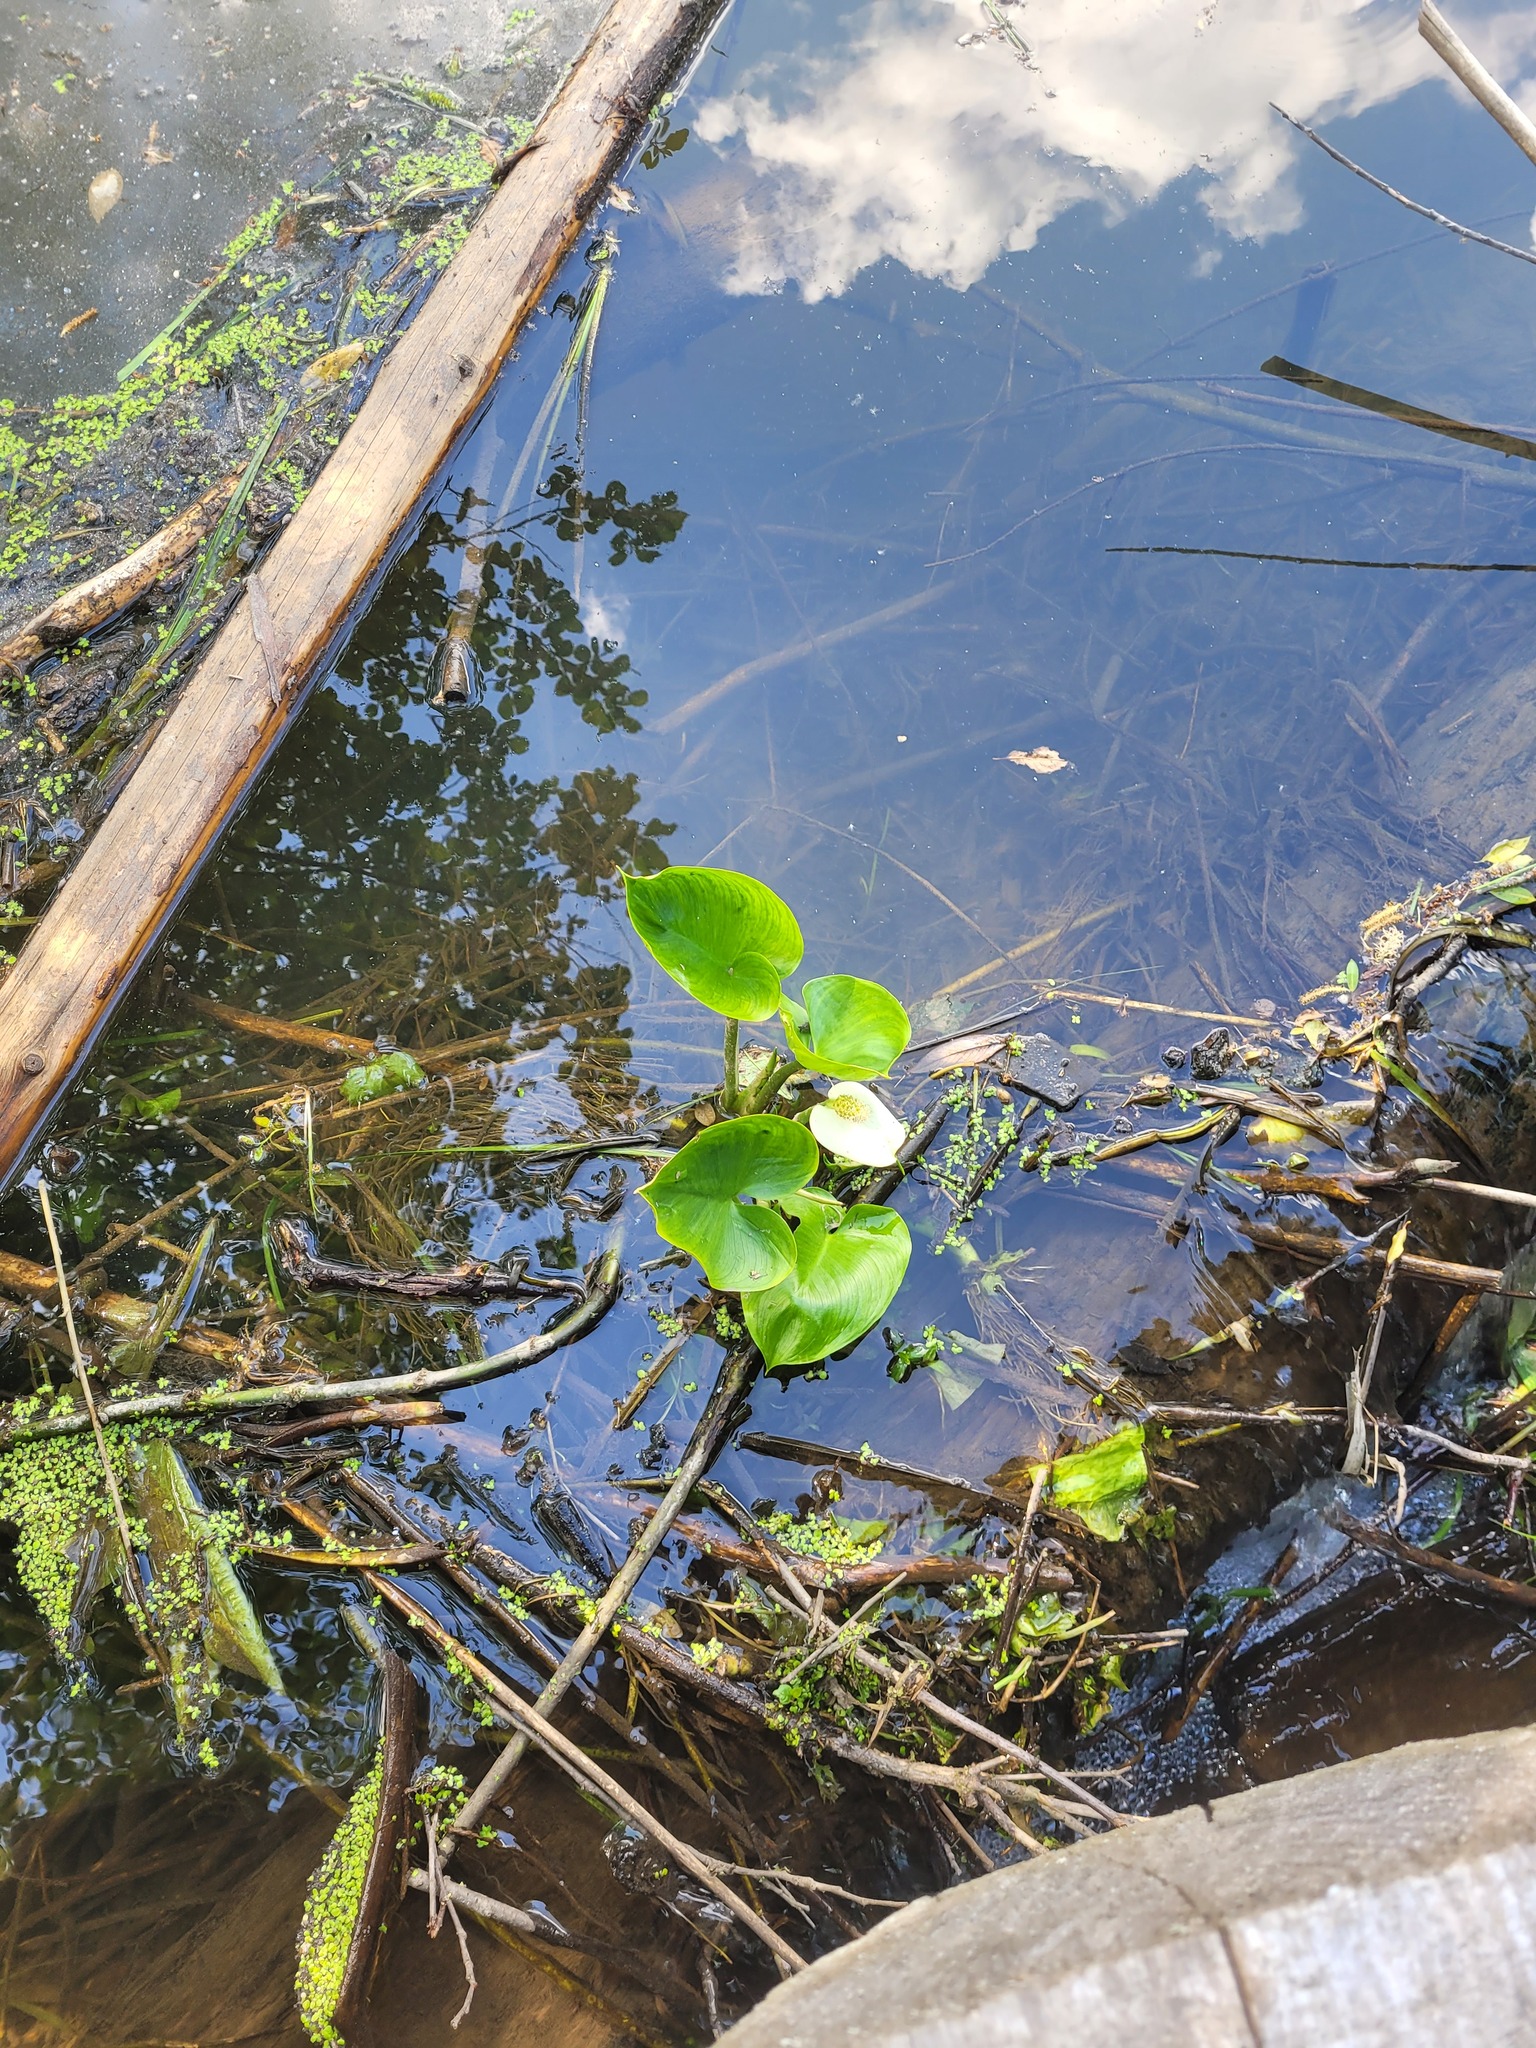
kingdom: Plantae
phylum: Tracheophyta
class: Liliopsida
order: Alismatales
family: Araceae
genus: Calla
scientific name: Calla palustris
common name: Bog arum
